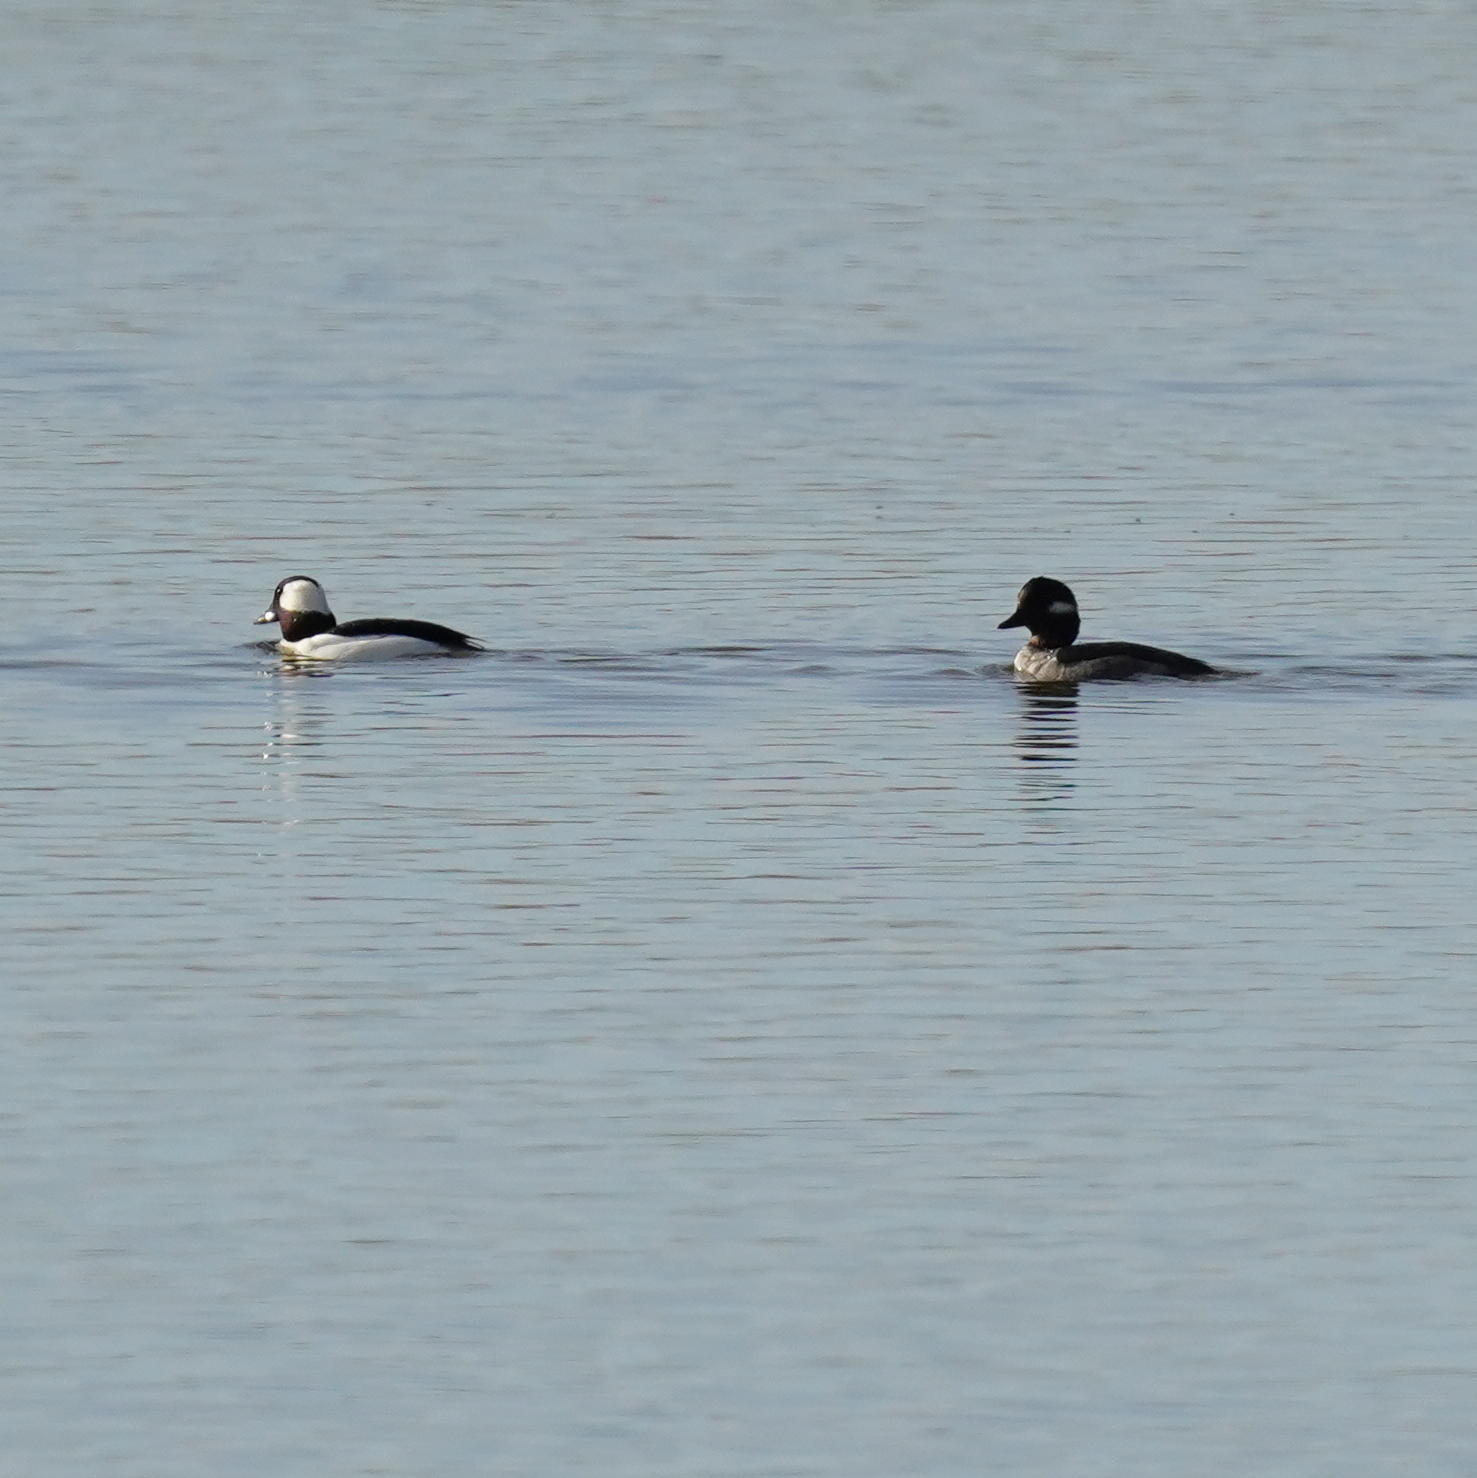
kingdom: Animalia
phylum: Chordata
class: Aves
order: Anseriformes
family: Anatidae
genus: Bucephala
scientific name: Bucephala albeola
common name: Bufflehead
